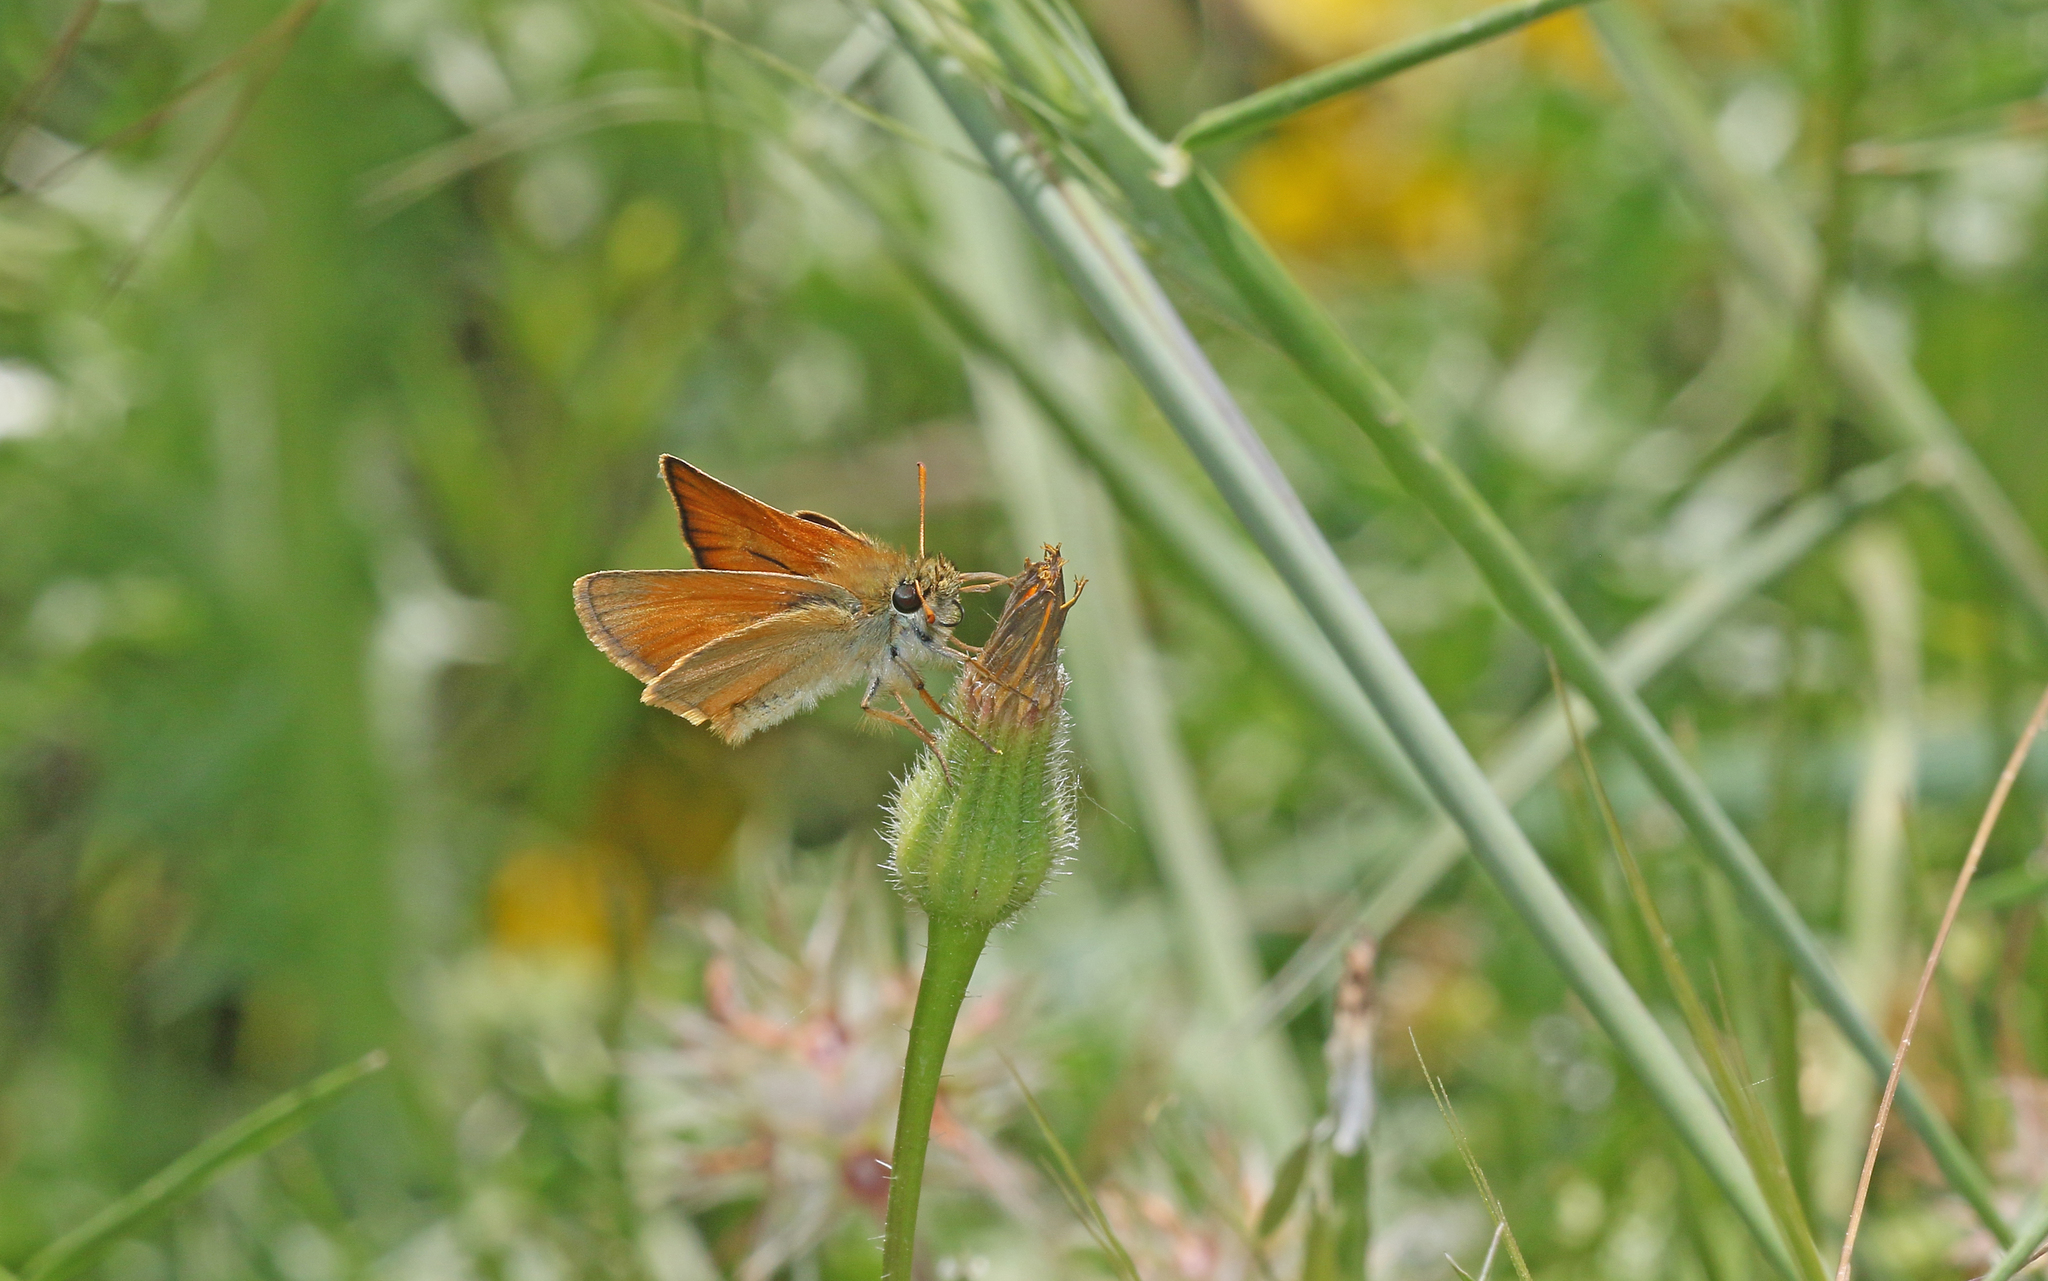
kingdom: Animalia
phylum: Arthropoda
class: Insecta
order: Lepidoptera
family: Hesperiidae
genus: Thymelicus
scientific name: Thymelicus sylvestris
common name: Small skipper
